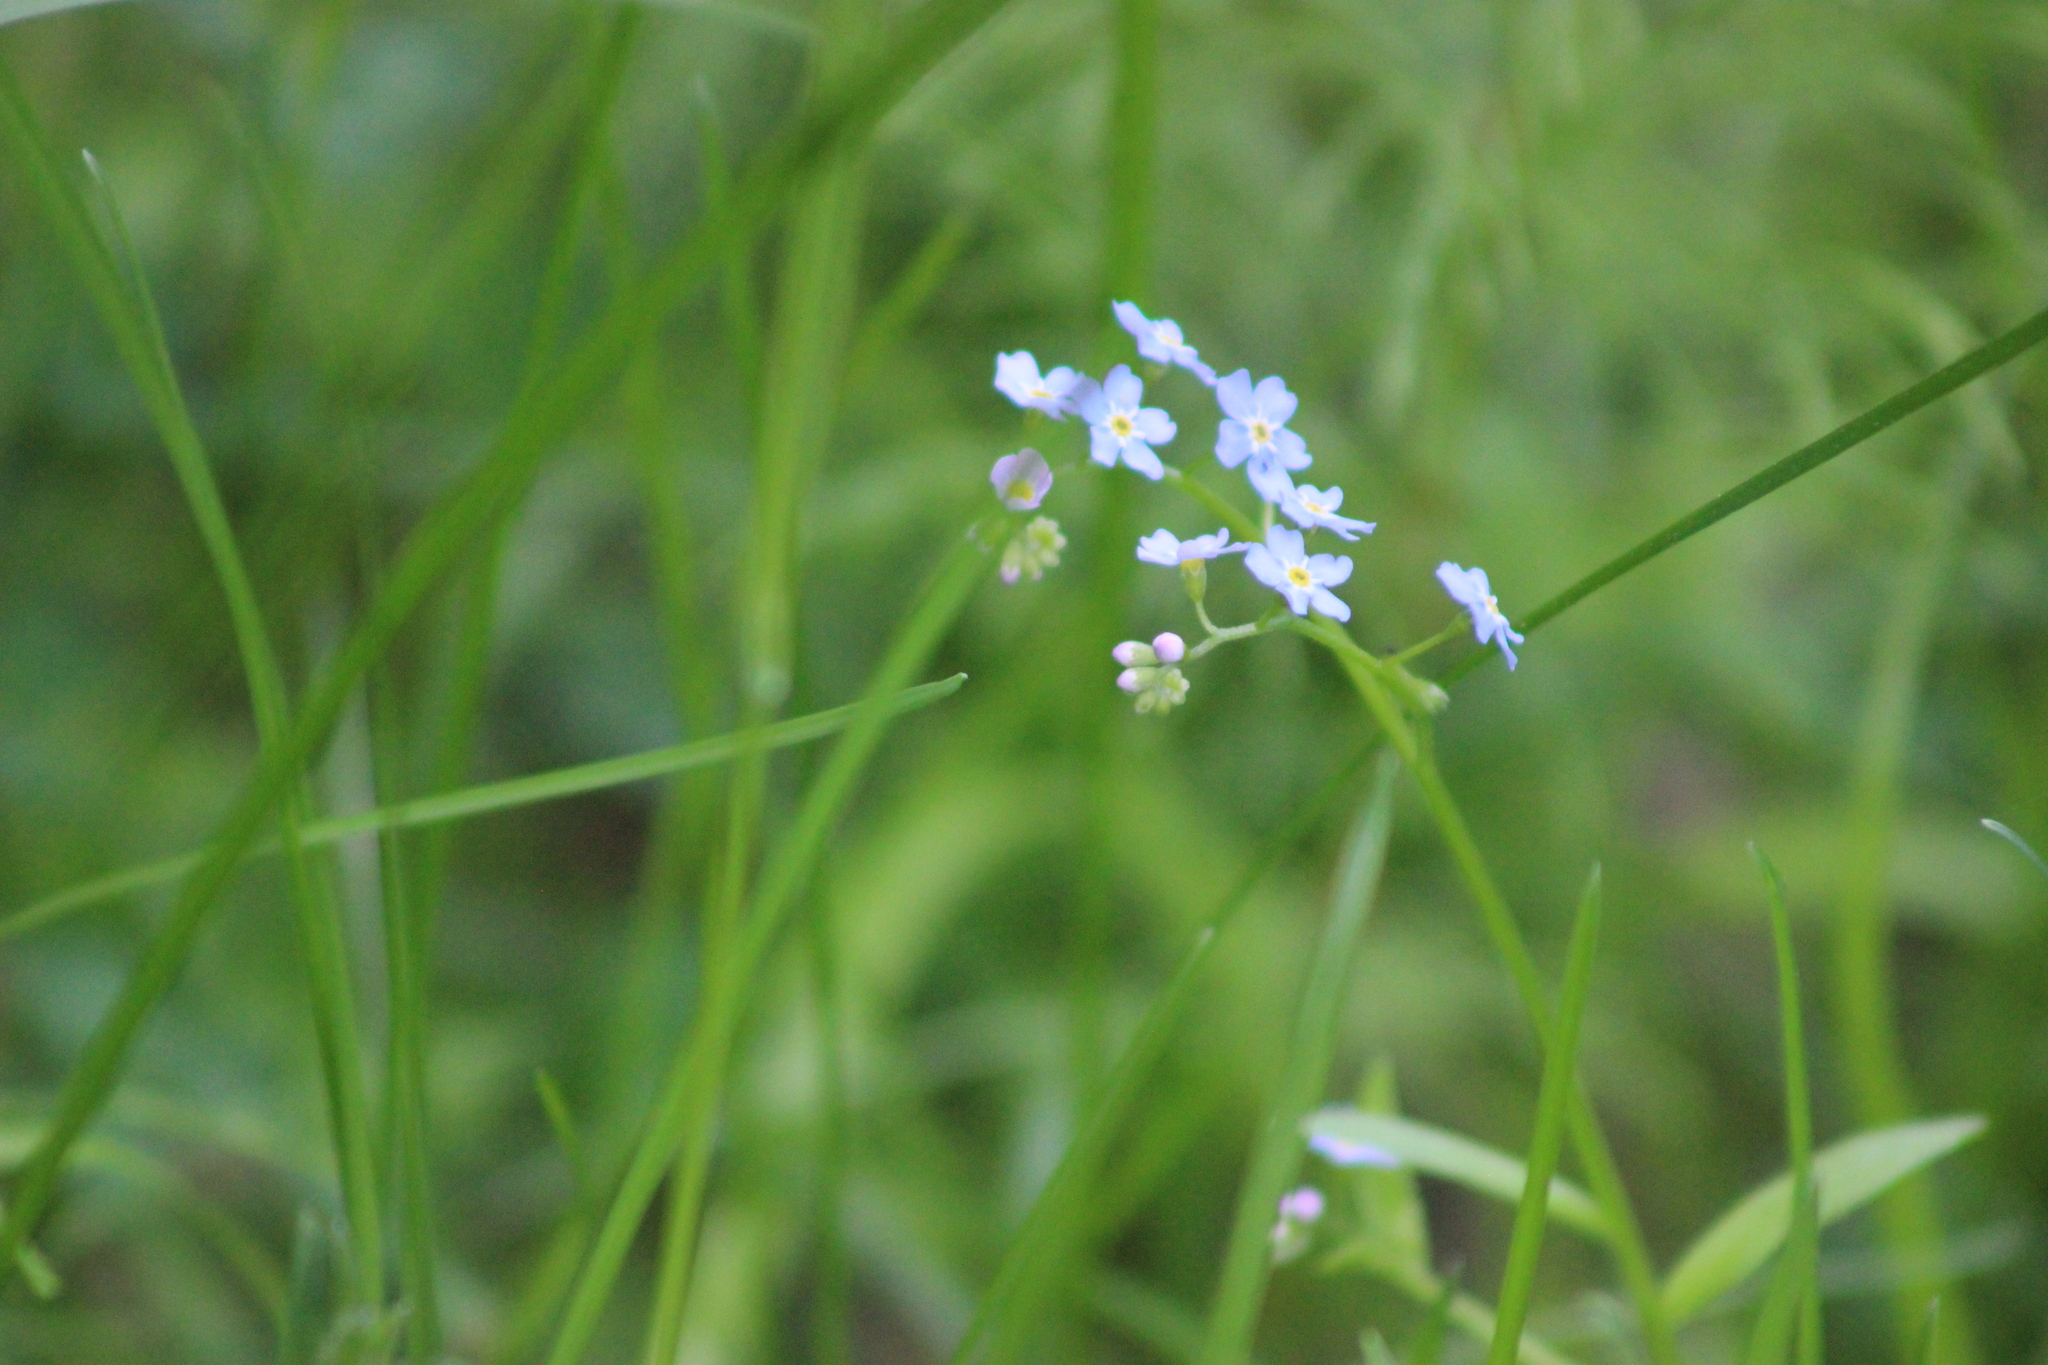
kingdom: Plantae
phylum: Tracheophyta
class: Magnoliopsida
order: Boraginales
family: Boraginaceae
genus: Myosotis
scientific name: Myosotis scorpioides
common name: Water forget-me-not
